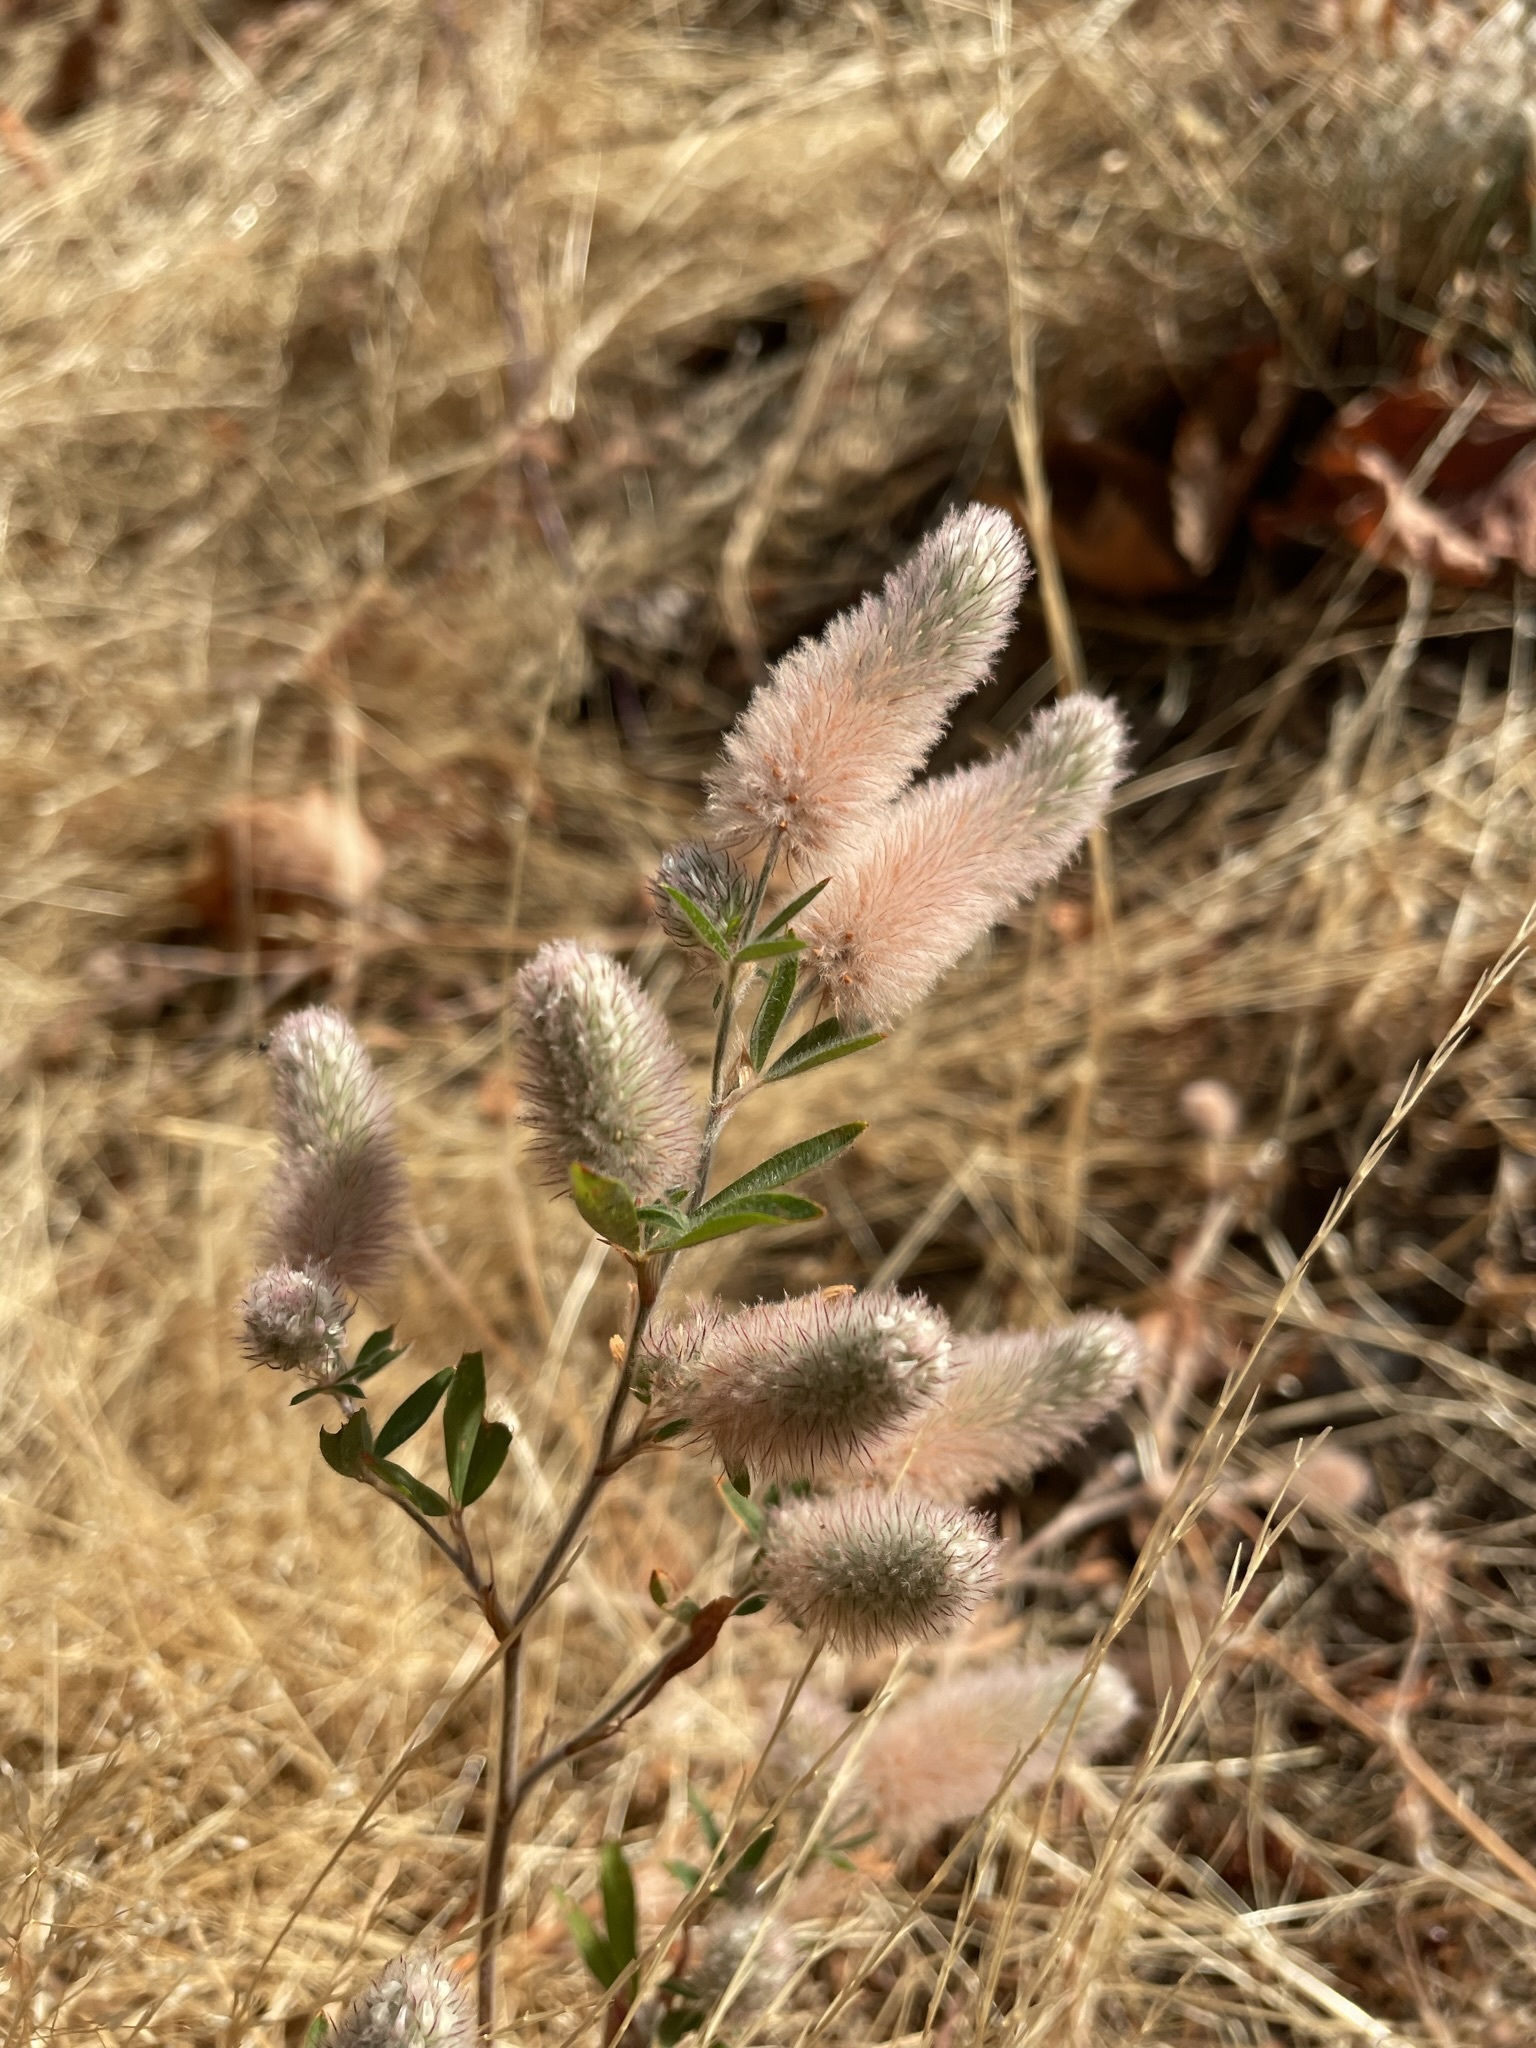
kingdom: Plantae
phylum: Tracheophyta
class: Magnoliopsida
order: Fabales
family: Fabaceae
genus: Trifolium
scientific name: Trifolium arvense
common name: Hare's-foot clover
